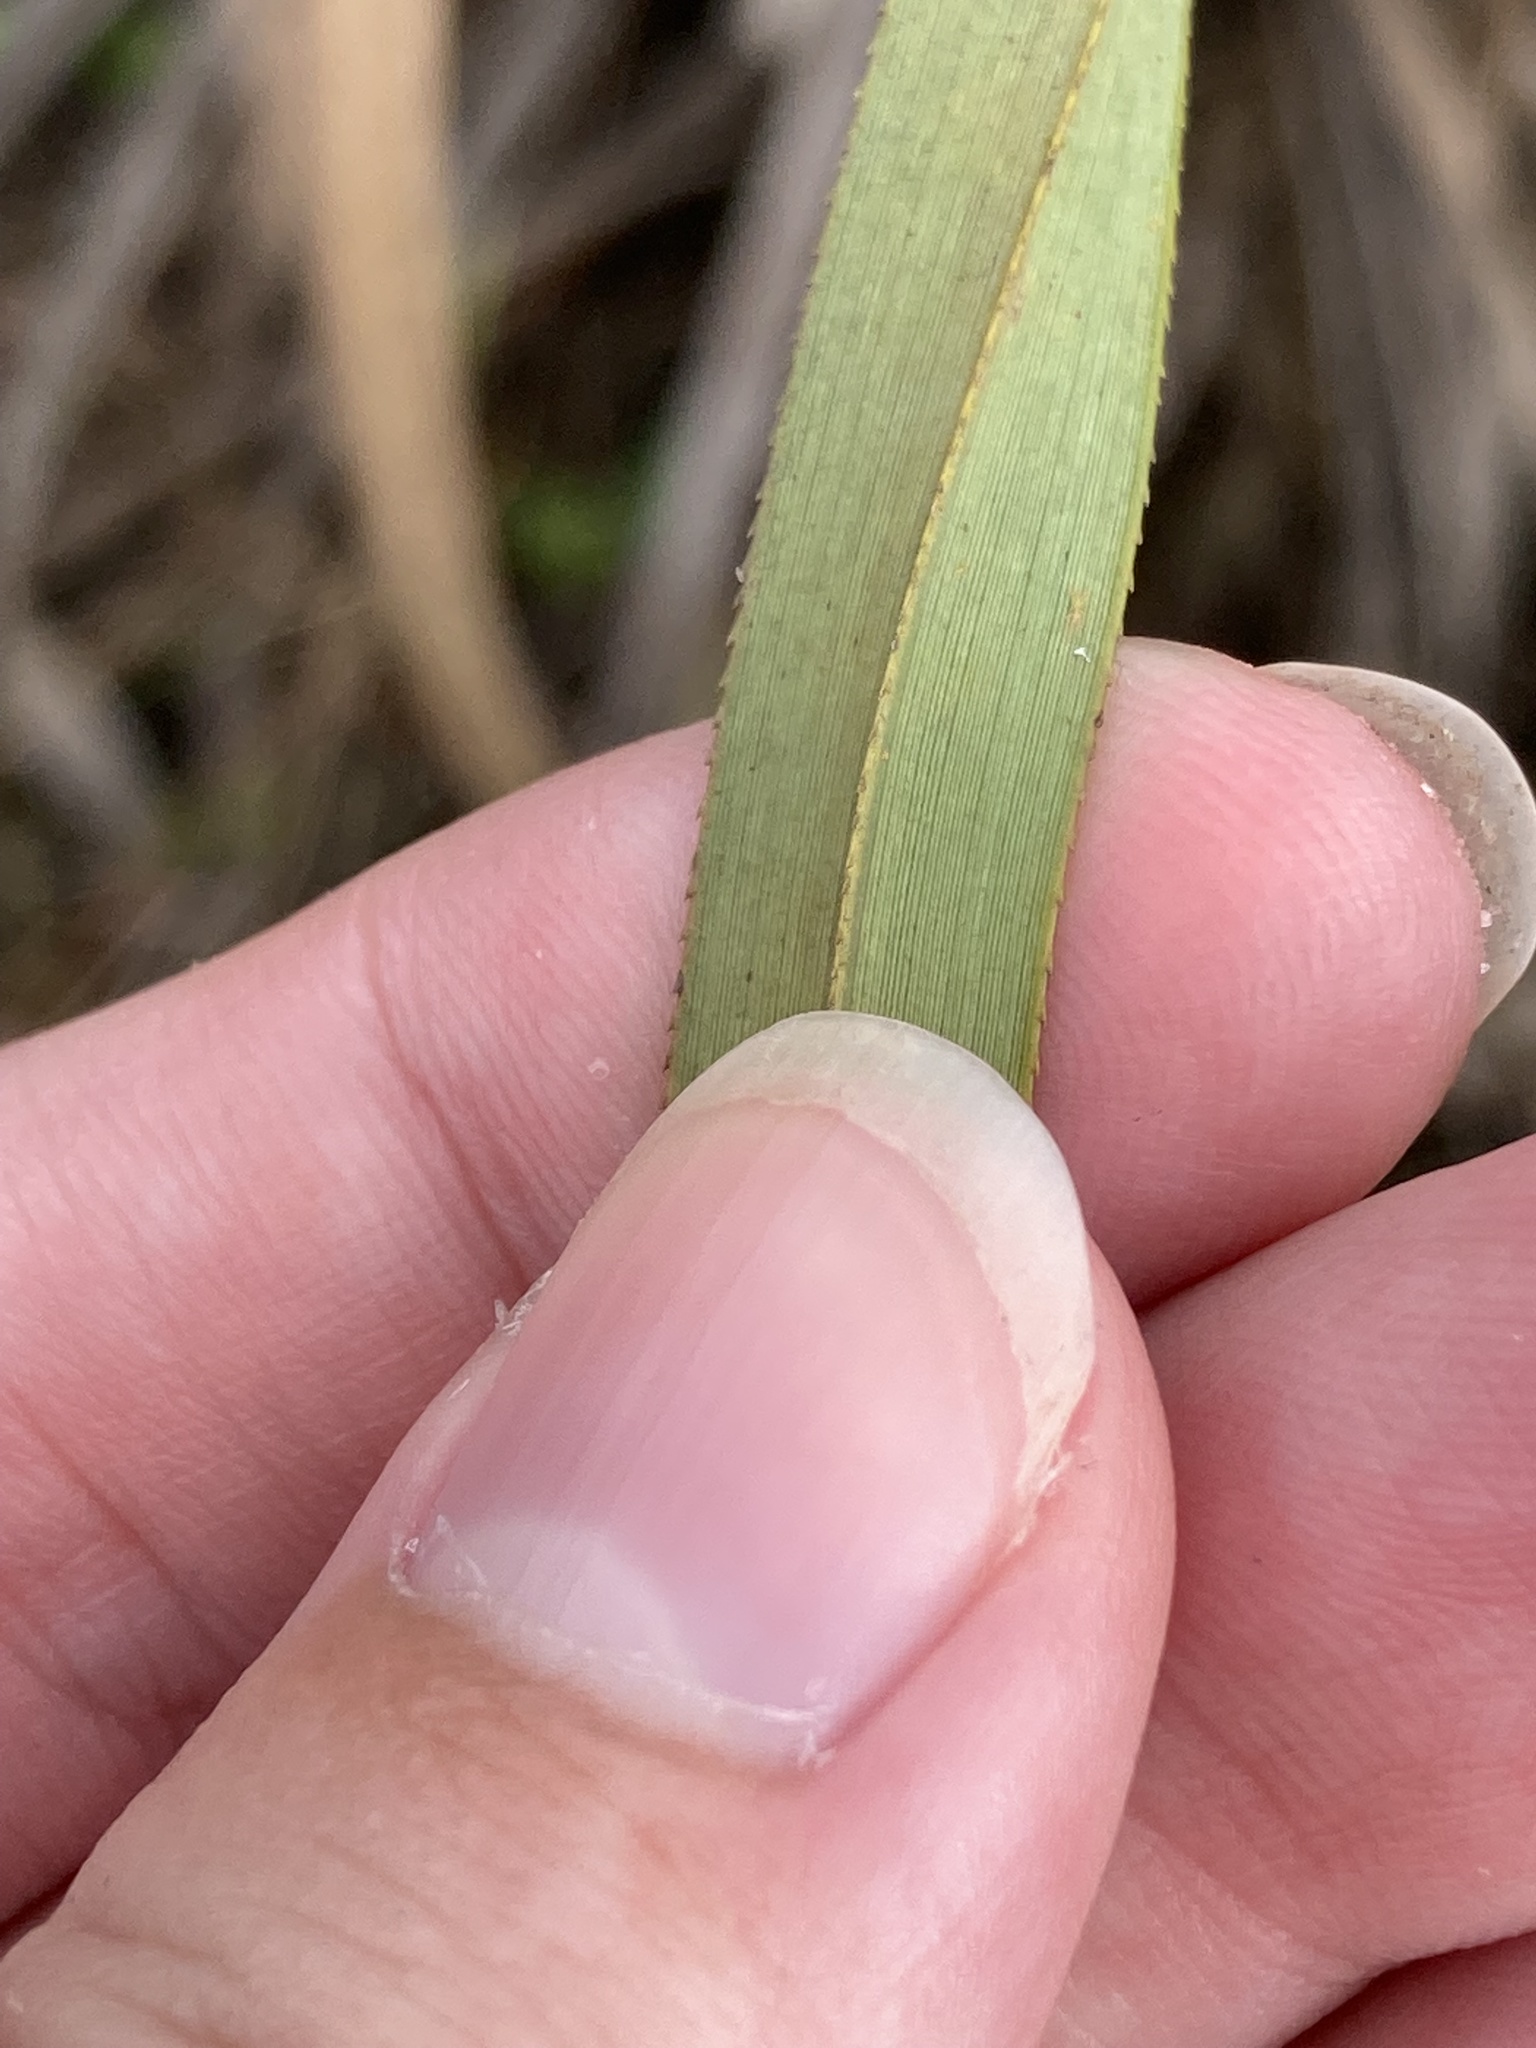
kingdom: Plantae
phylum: Tracheophyta
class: Liliopsida
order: Poales
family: Cyperaceae
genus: Cladium
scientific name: Cladium mariscus
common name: Great fen-sedge
